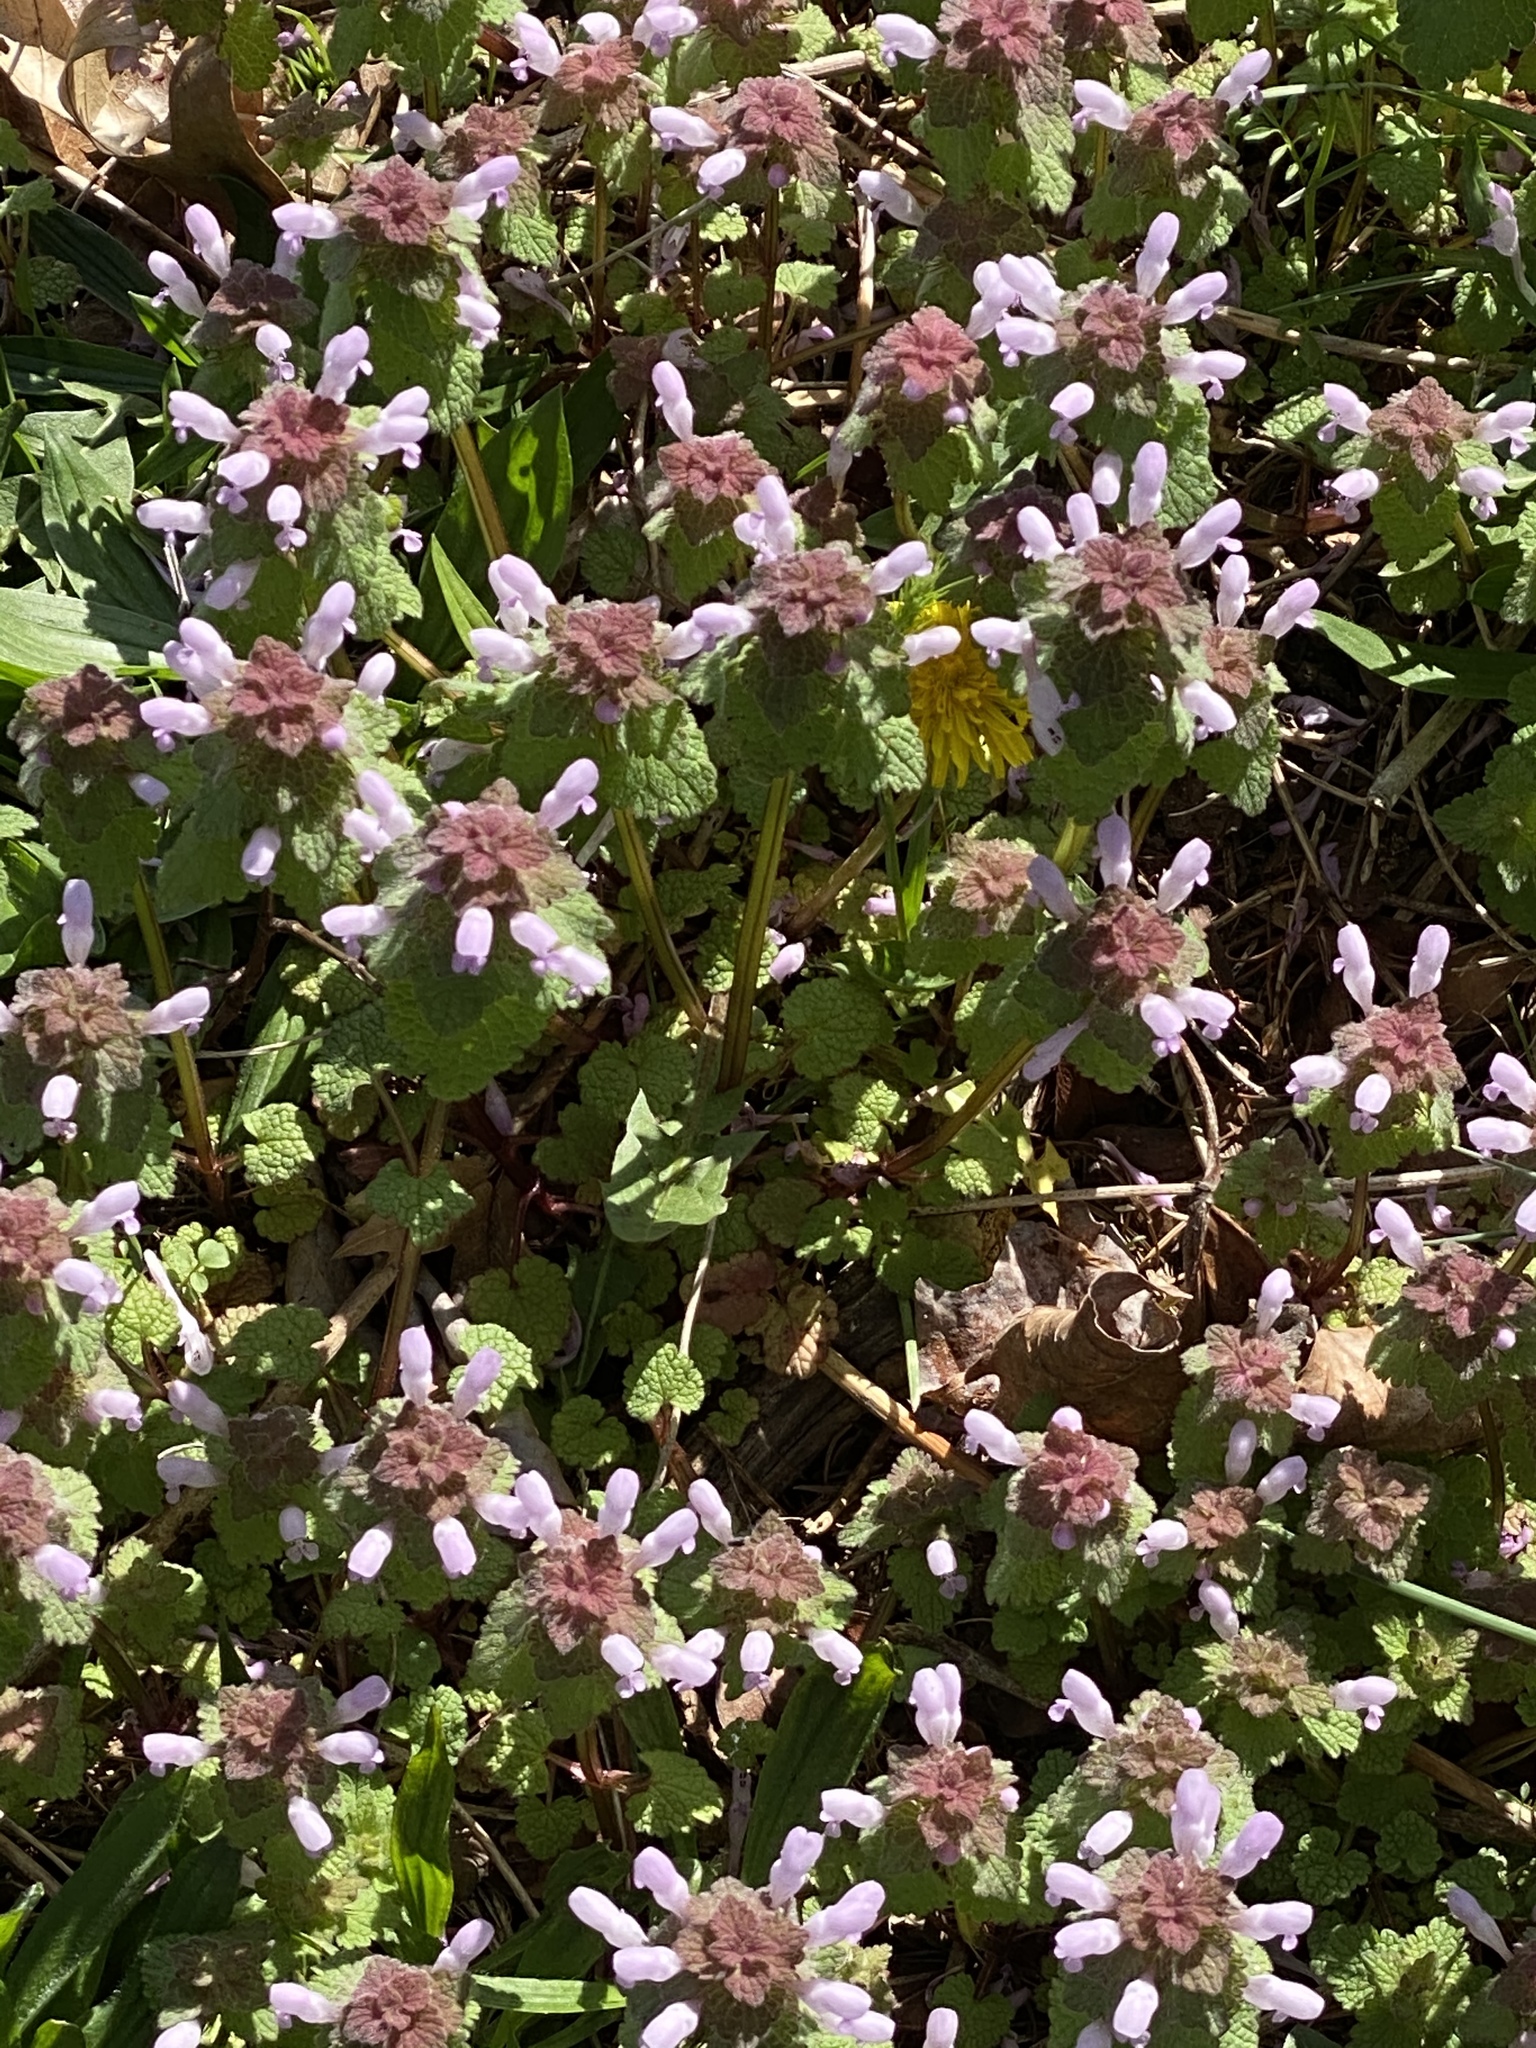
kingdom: Plantae
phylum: Tracheophyta
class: Magnoliopsida
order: Lamiales
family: Lamiaceae
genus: Lamium
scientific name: Lamium purpureum
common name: Red dead-nettle
